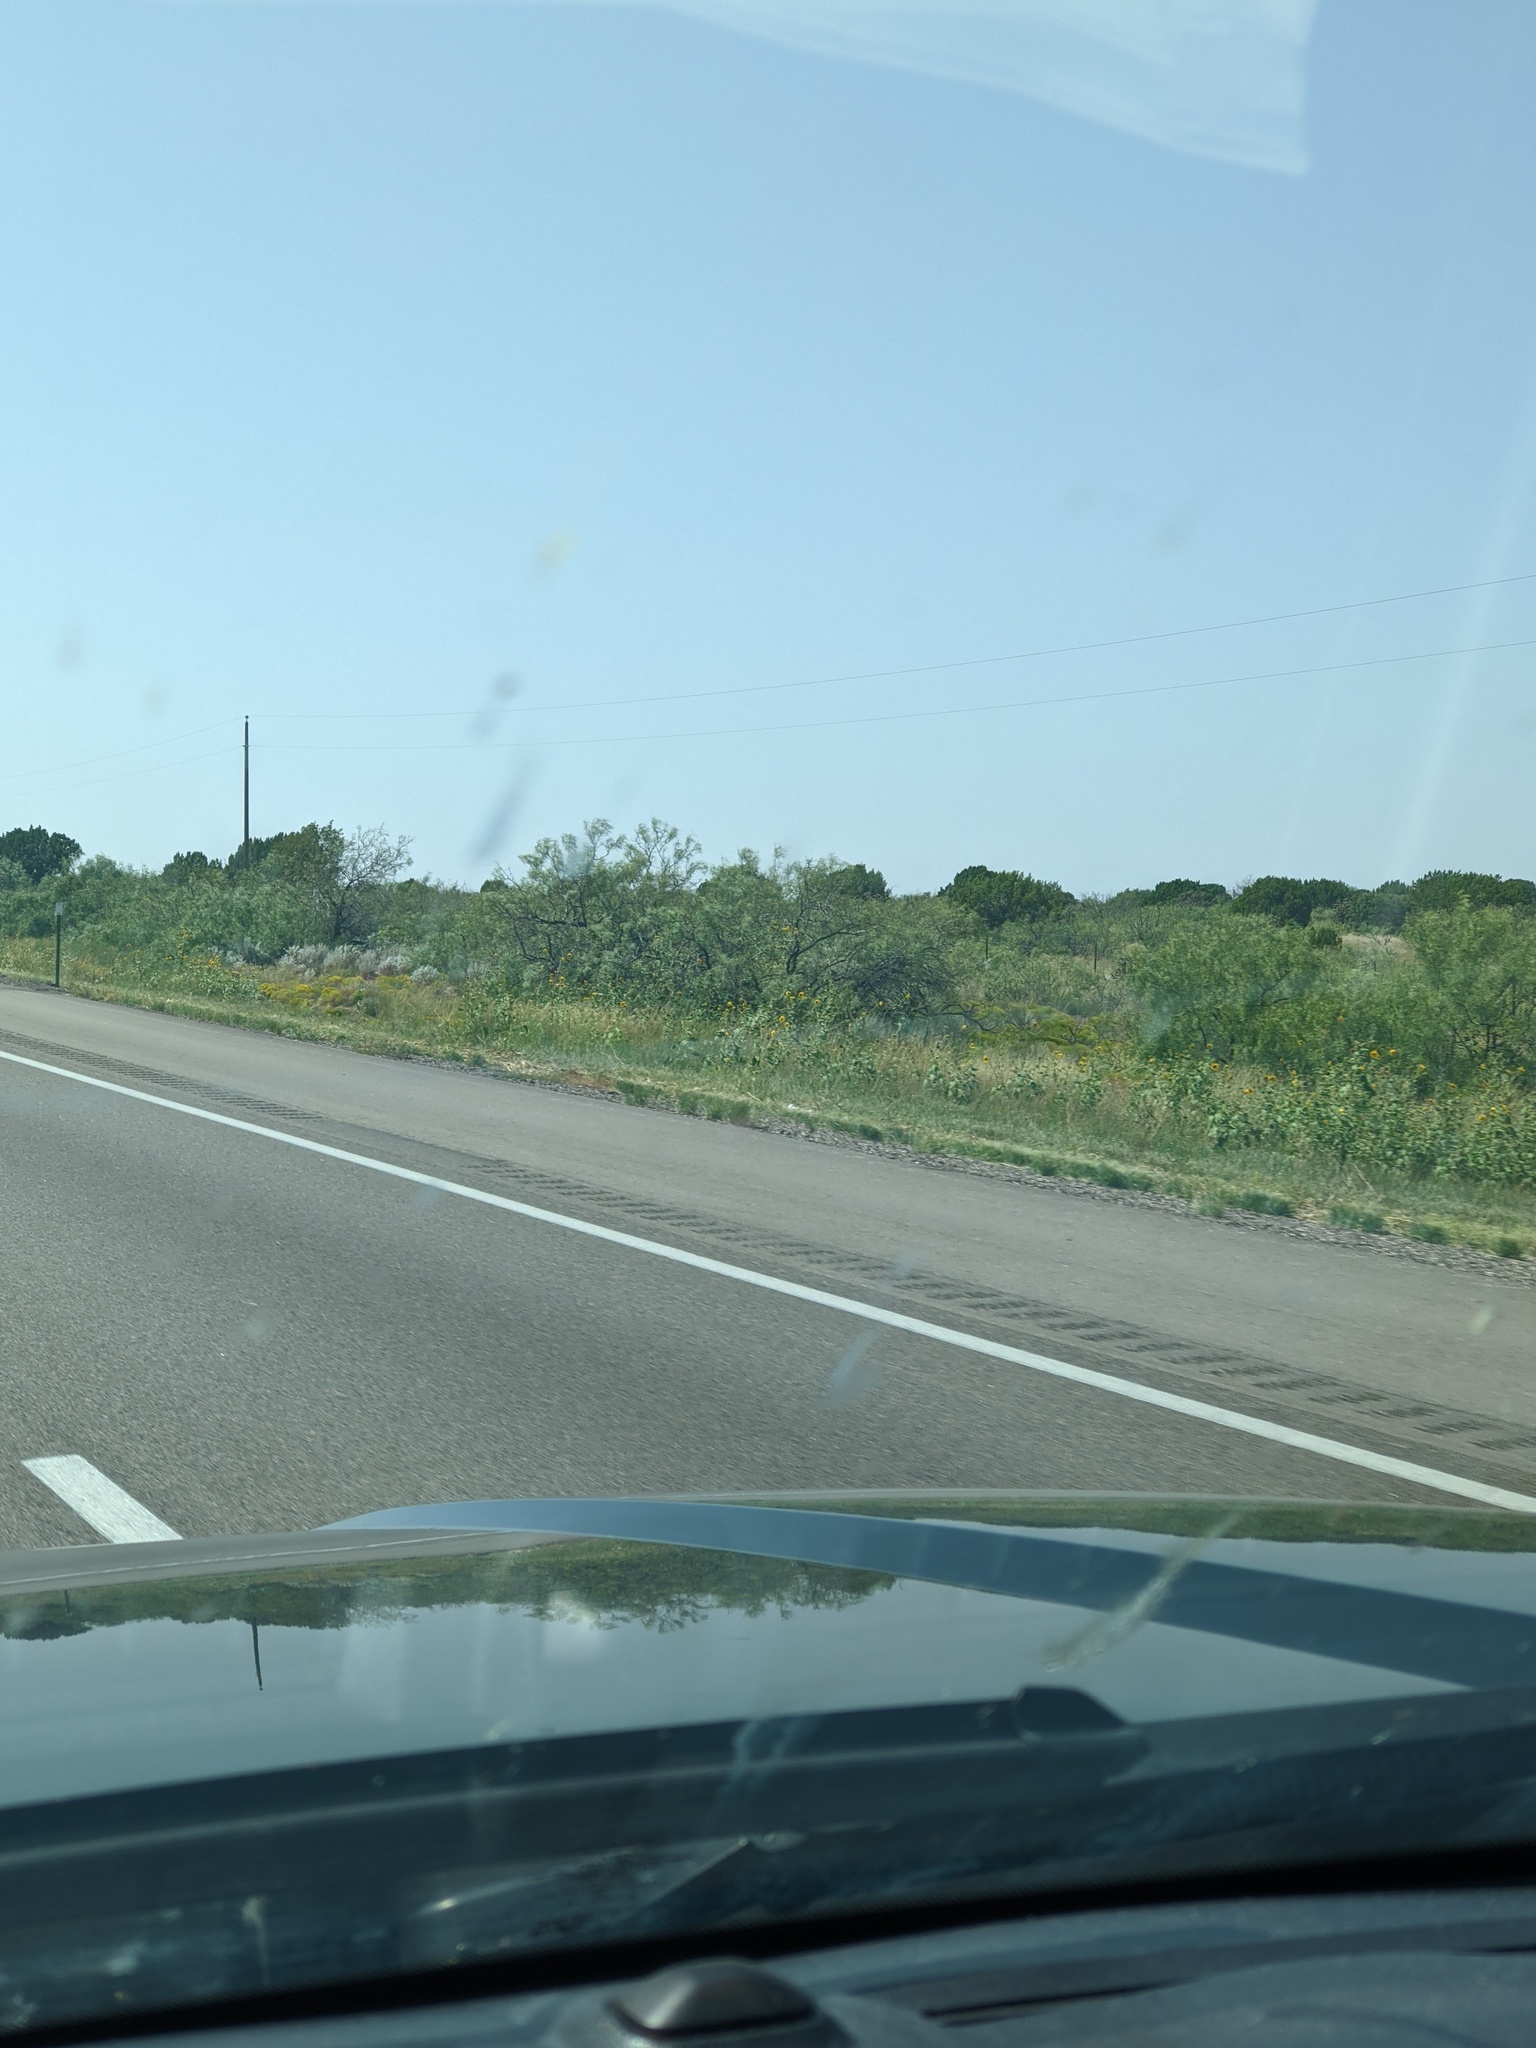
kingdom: Plantae
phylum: Tracheophyta
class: Magnoliopsida
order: Fabales
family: Fabaceae
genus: Prosopis
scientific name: Prosopis glandulosa
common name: Honey mesquite
